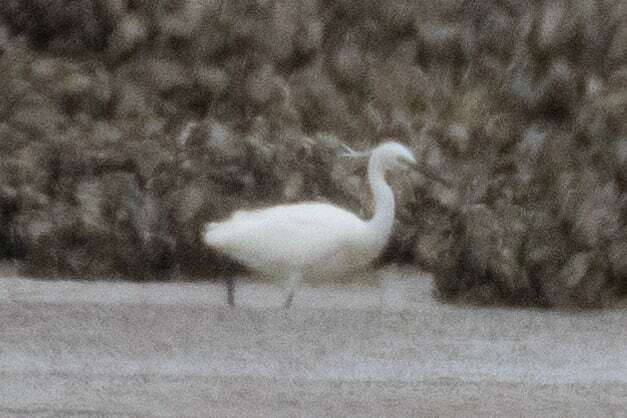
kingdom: Animalia
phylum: Chordata
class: Aves
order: Pelecaniformes
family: Ardeidae
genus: Egretta
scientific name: Egretta garzetta
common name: Little egret
